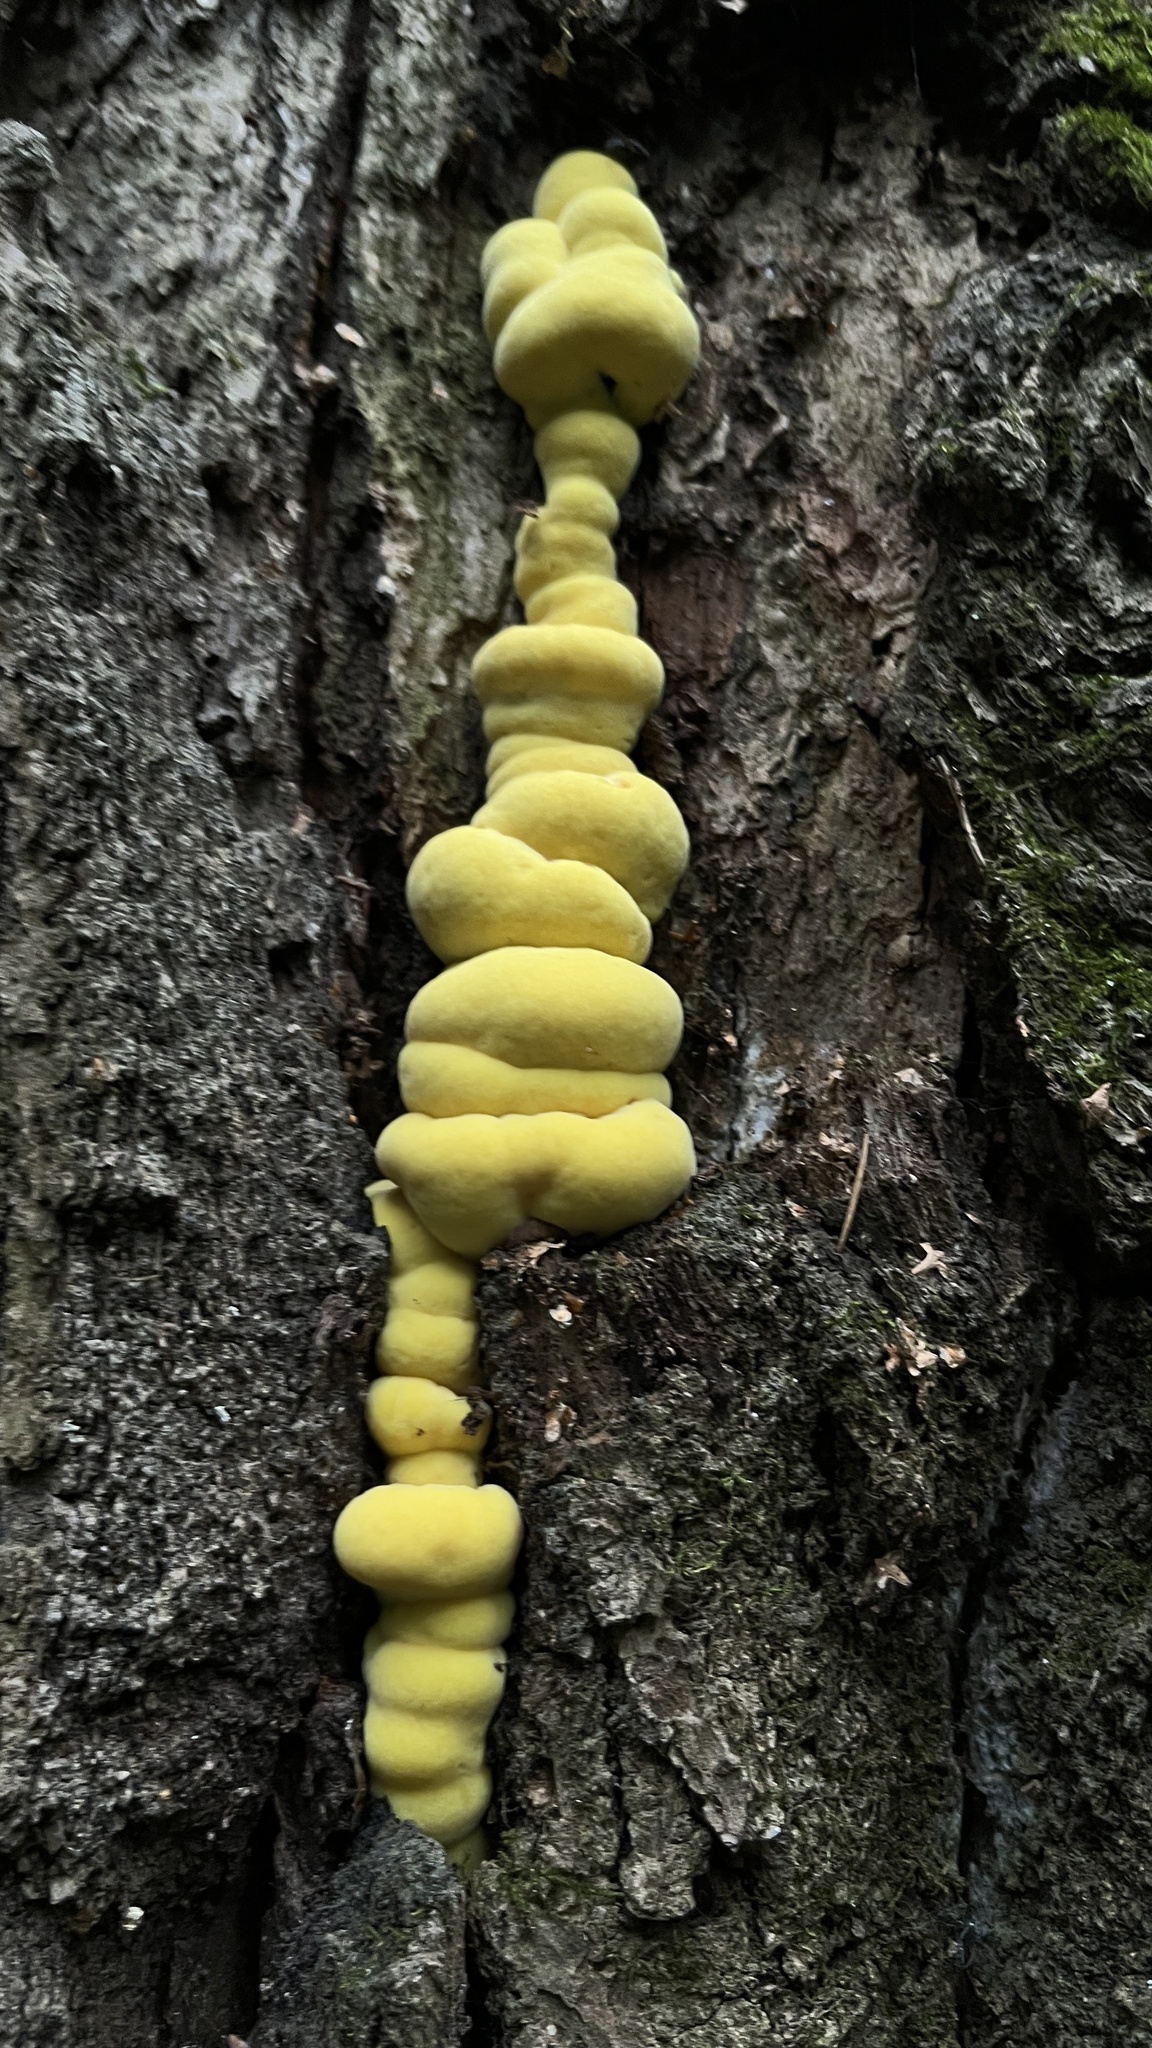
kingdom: Fungi
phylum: Basidiomycota
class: Agaricomycetes
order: Polyporales
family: Laetiporaceae
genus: Laetiporus
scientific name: Laetiporus sulphureus
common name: Chicken of the woods
